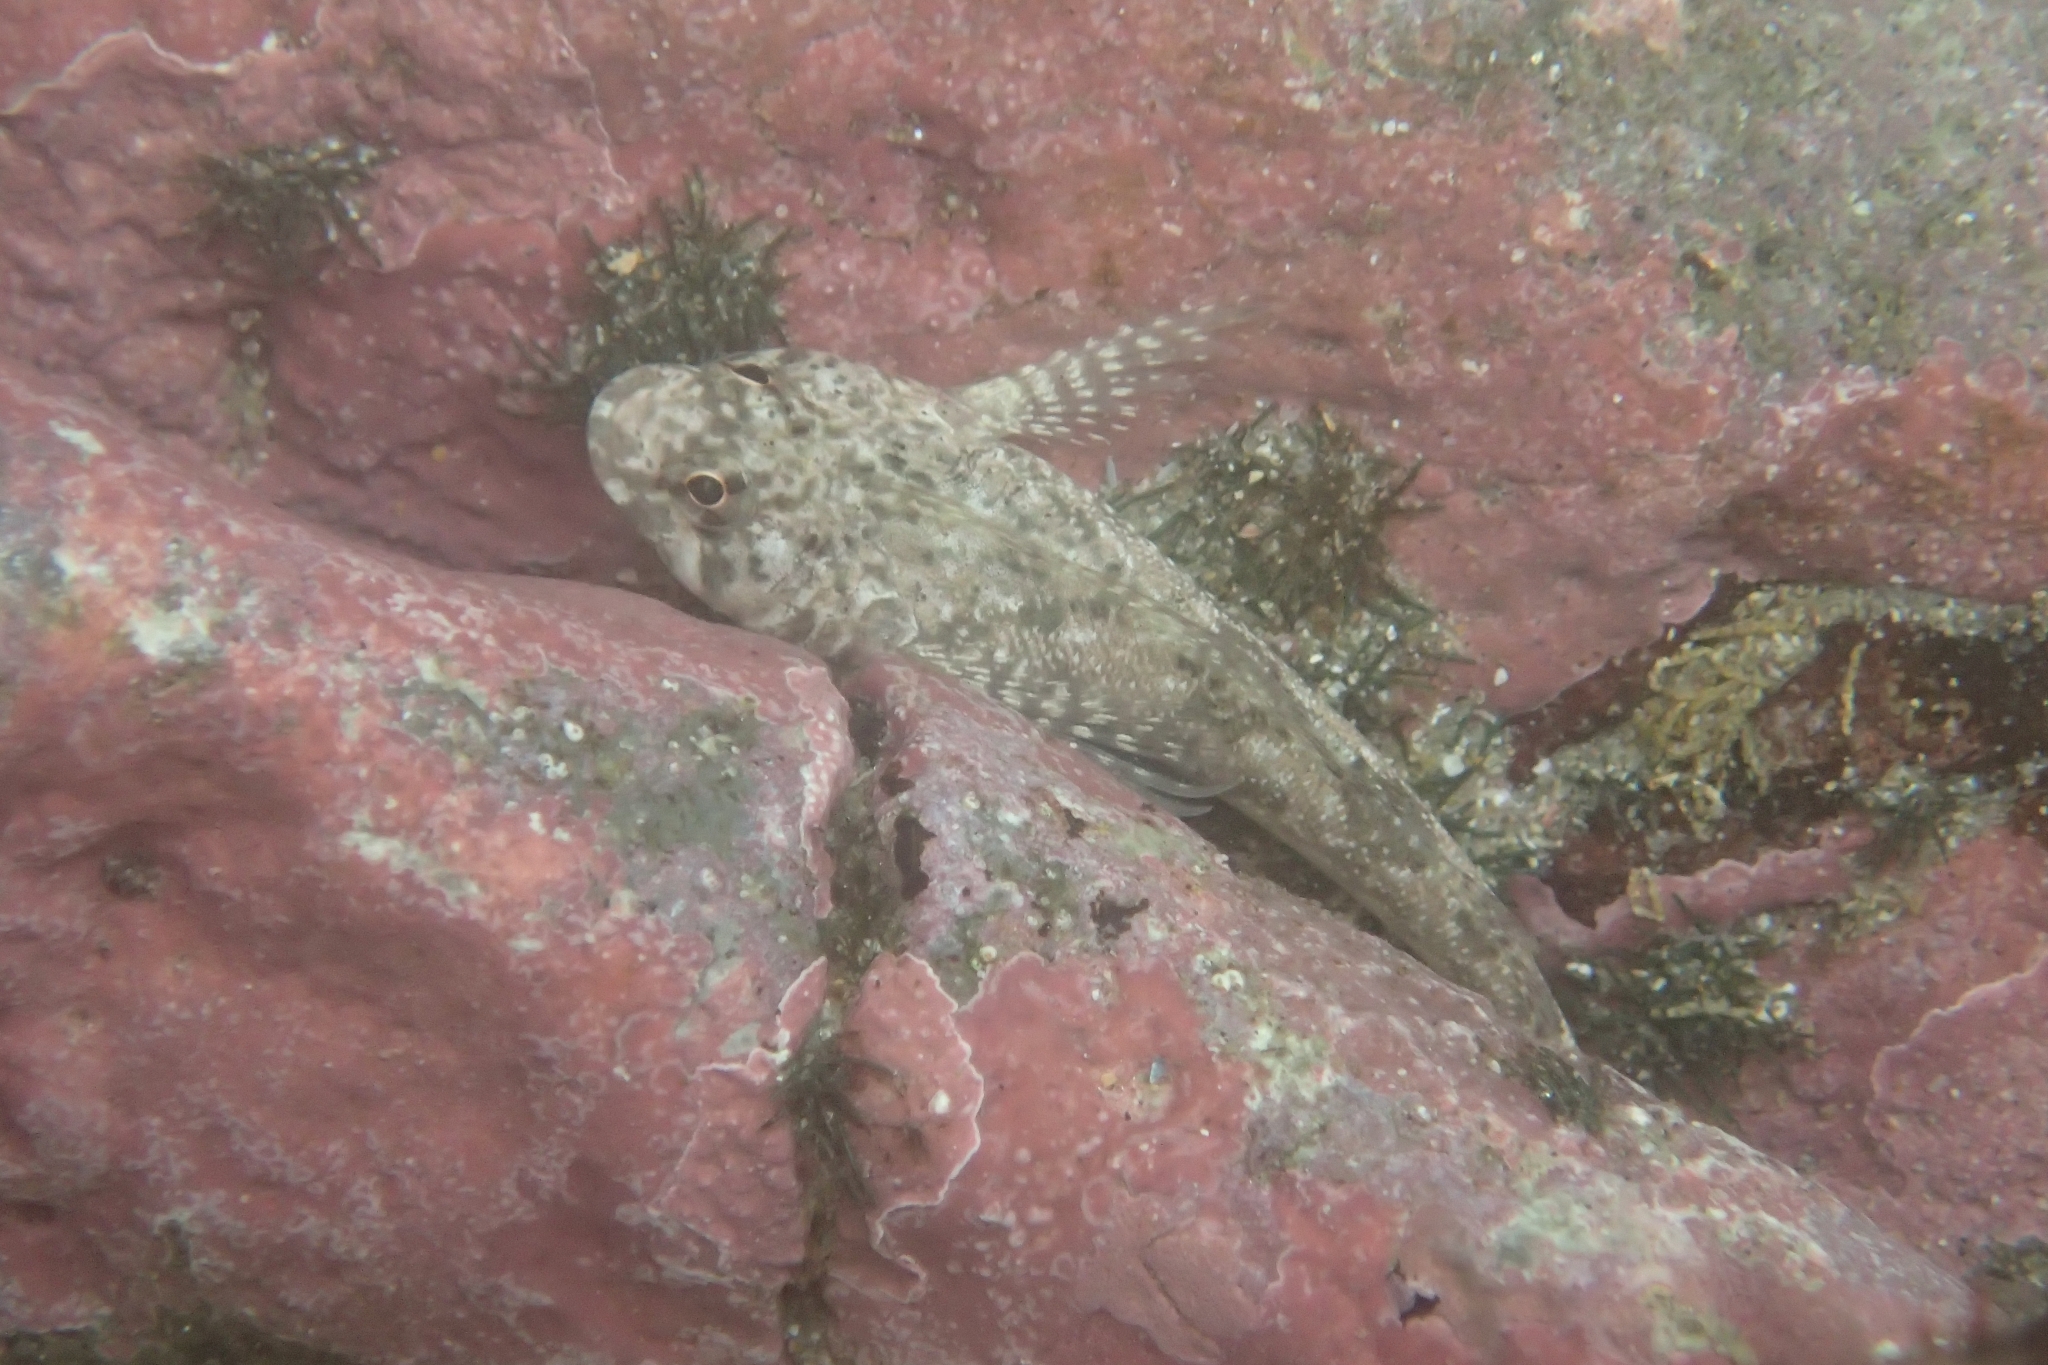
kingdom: Animalia
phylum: Chordata
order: Perciformes
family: Tripterygiidae
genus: Bellapiscis
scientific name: Bellapiscis medius
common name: Twister
